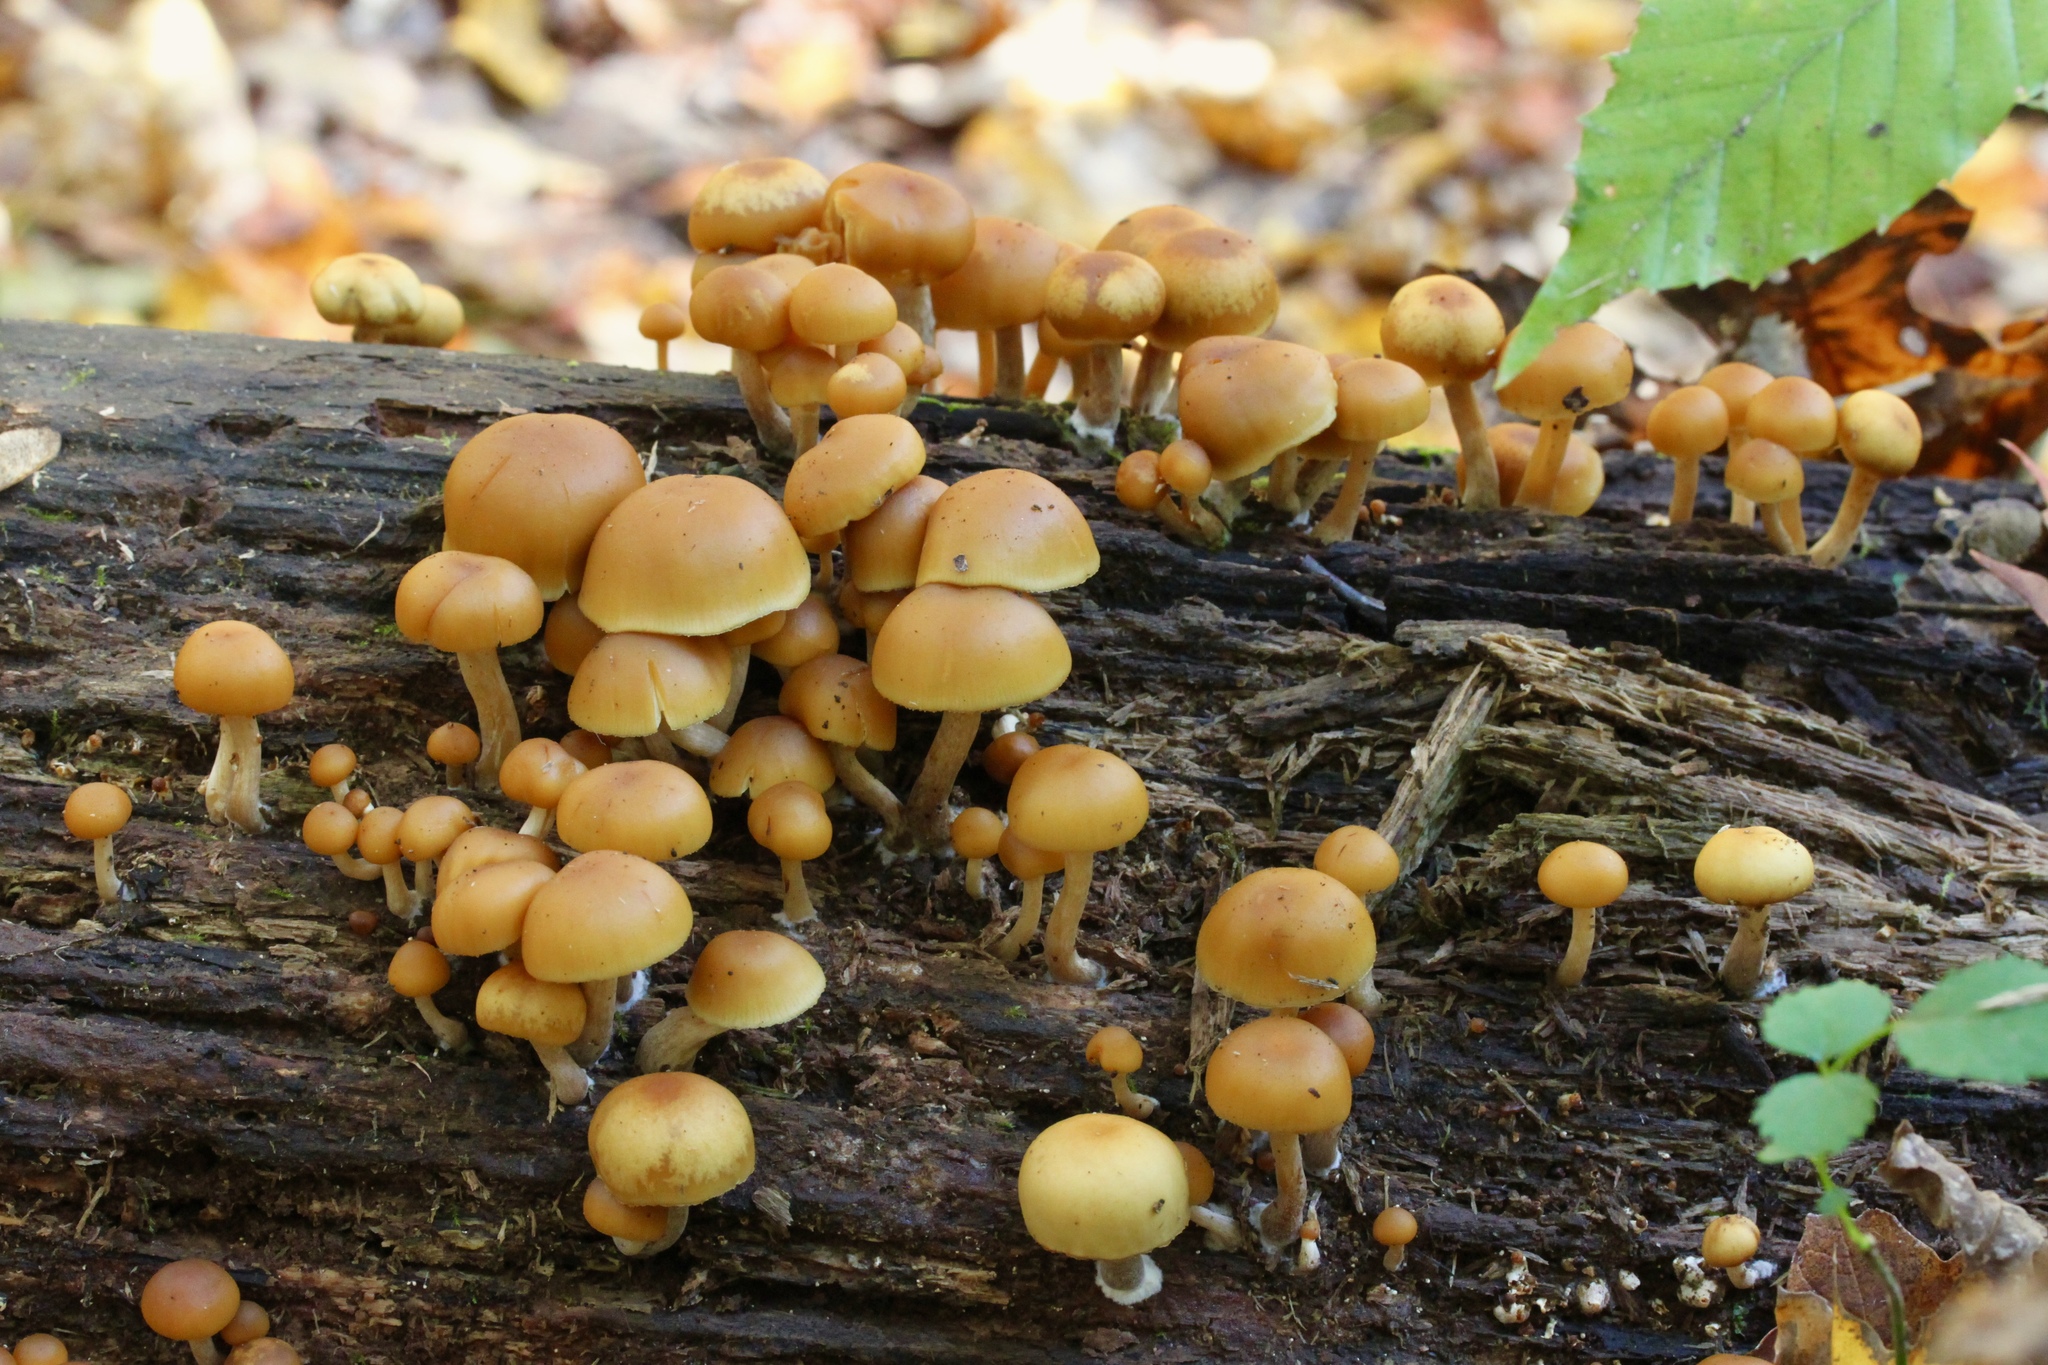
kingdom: Fungi
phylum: Basidiomycota
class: Agaricomycetes
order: Agaricales
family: Hymenogastraceae
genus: Galerina
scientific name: Galerina marginata
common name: Funeral bell
